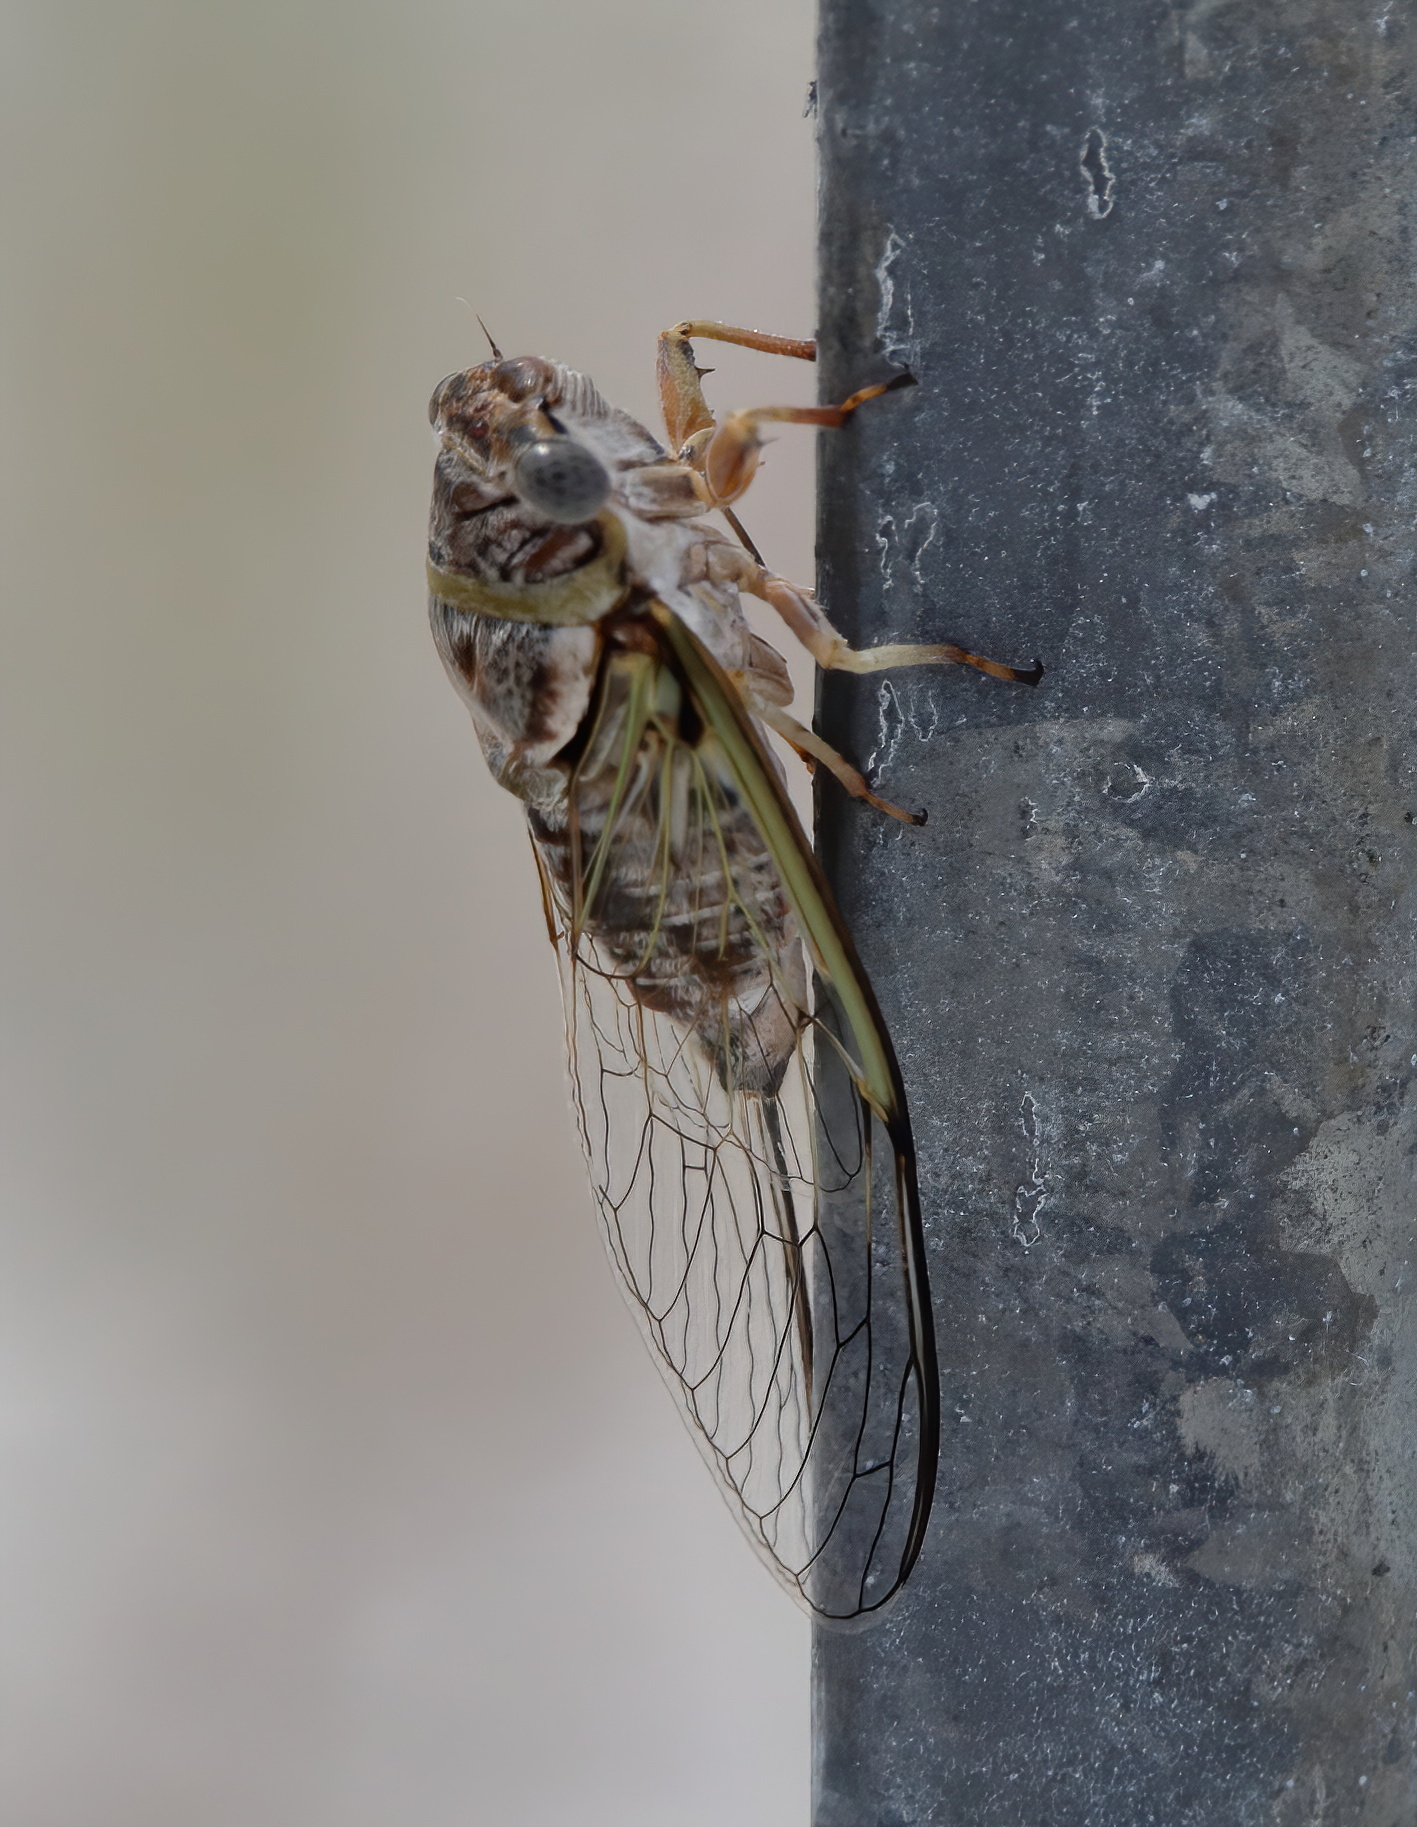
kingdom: Animalia
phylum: Arthropoda
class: Insecta
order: Hemiptera
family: Cicadidae
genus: Diceroprocta
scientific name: Diceroprocta viridifascia
